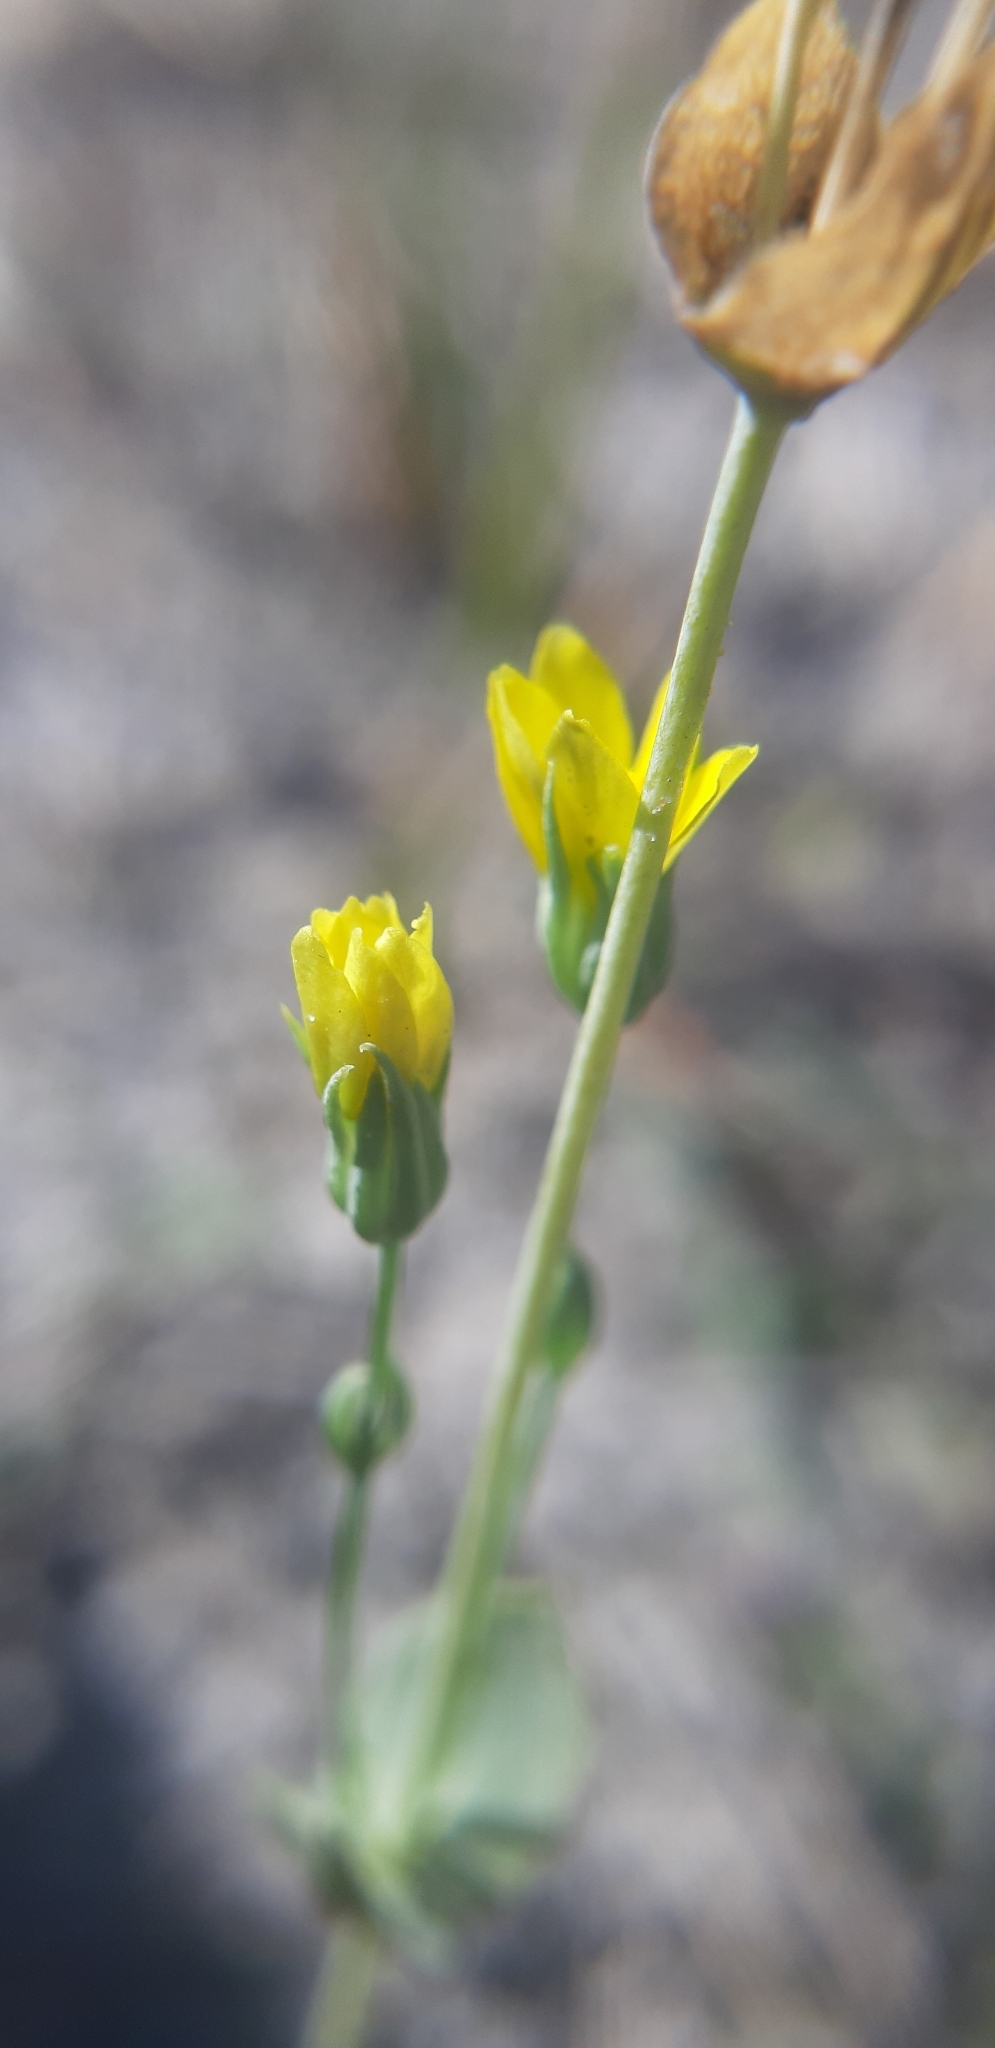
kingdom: Plantae
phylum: Tracheophyta
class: Magnoliopsida
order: Gentianales
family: Gentianaceae
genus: Blackstonia
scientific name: Blackstonia acuminata
